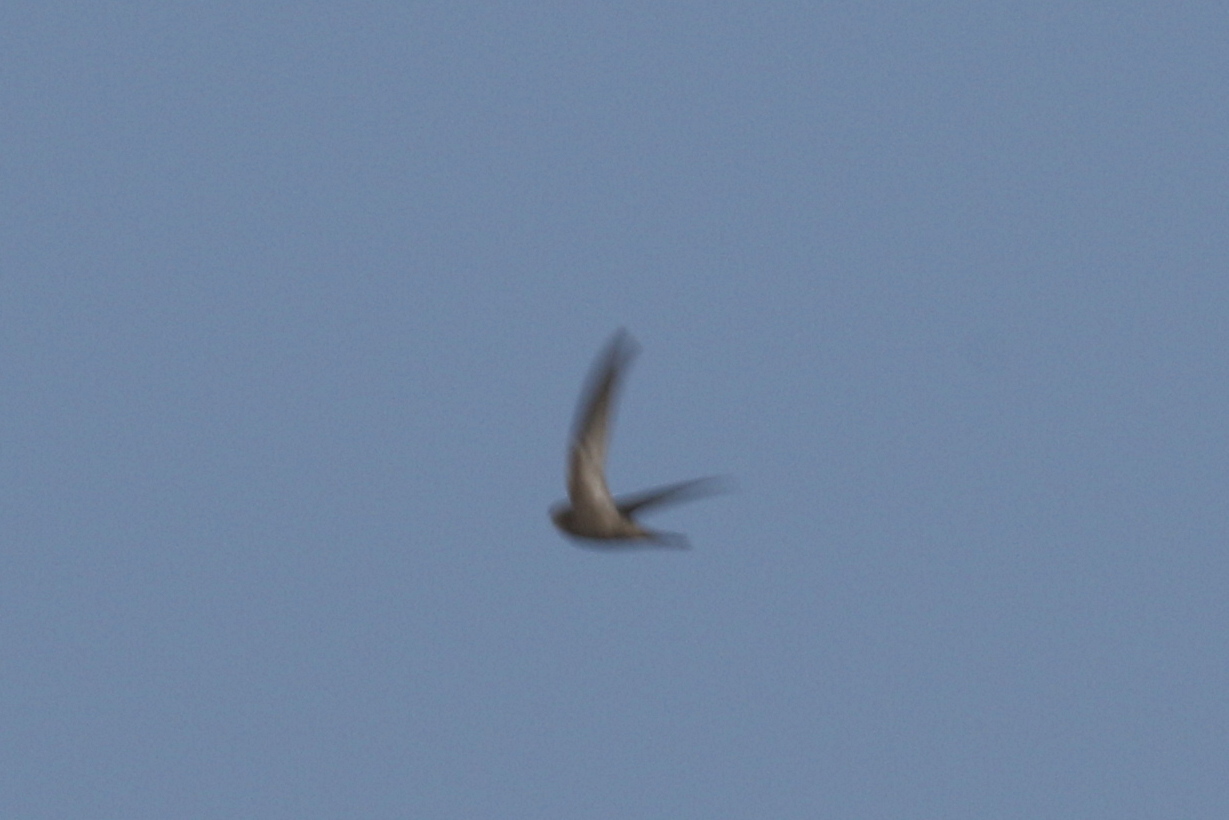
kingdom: Animalia
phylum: Chordata
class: Aves
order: Apodiformes
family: Apodidae
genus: Apus
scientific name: Apus pallidus
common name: Pallid swift
